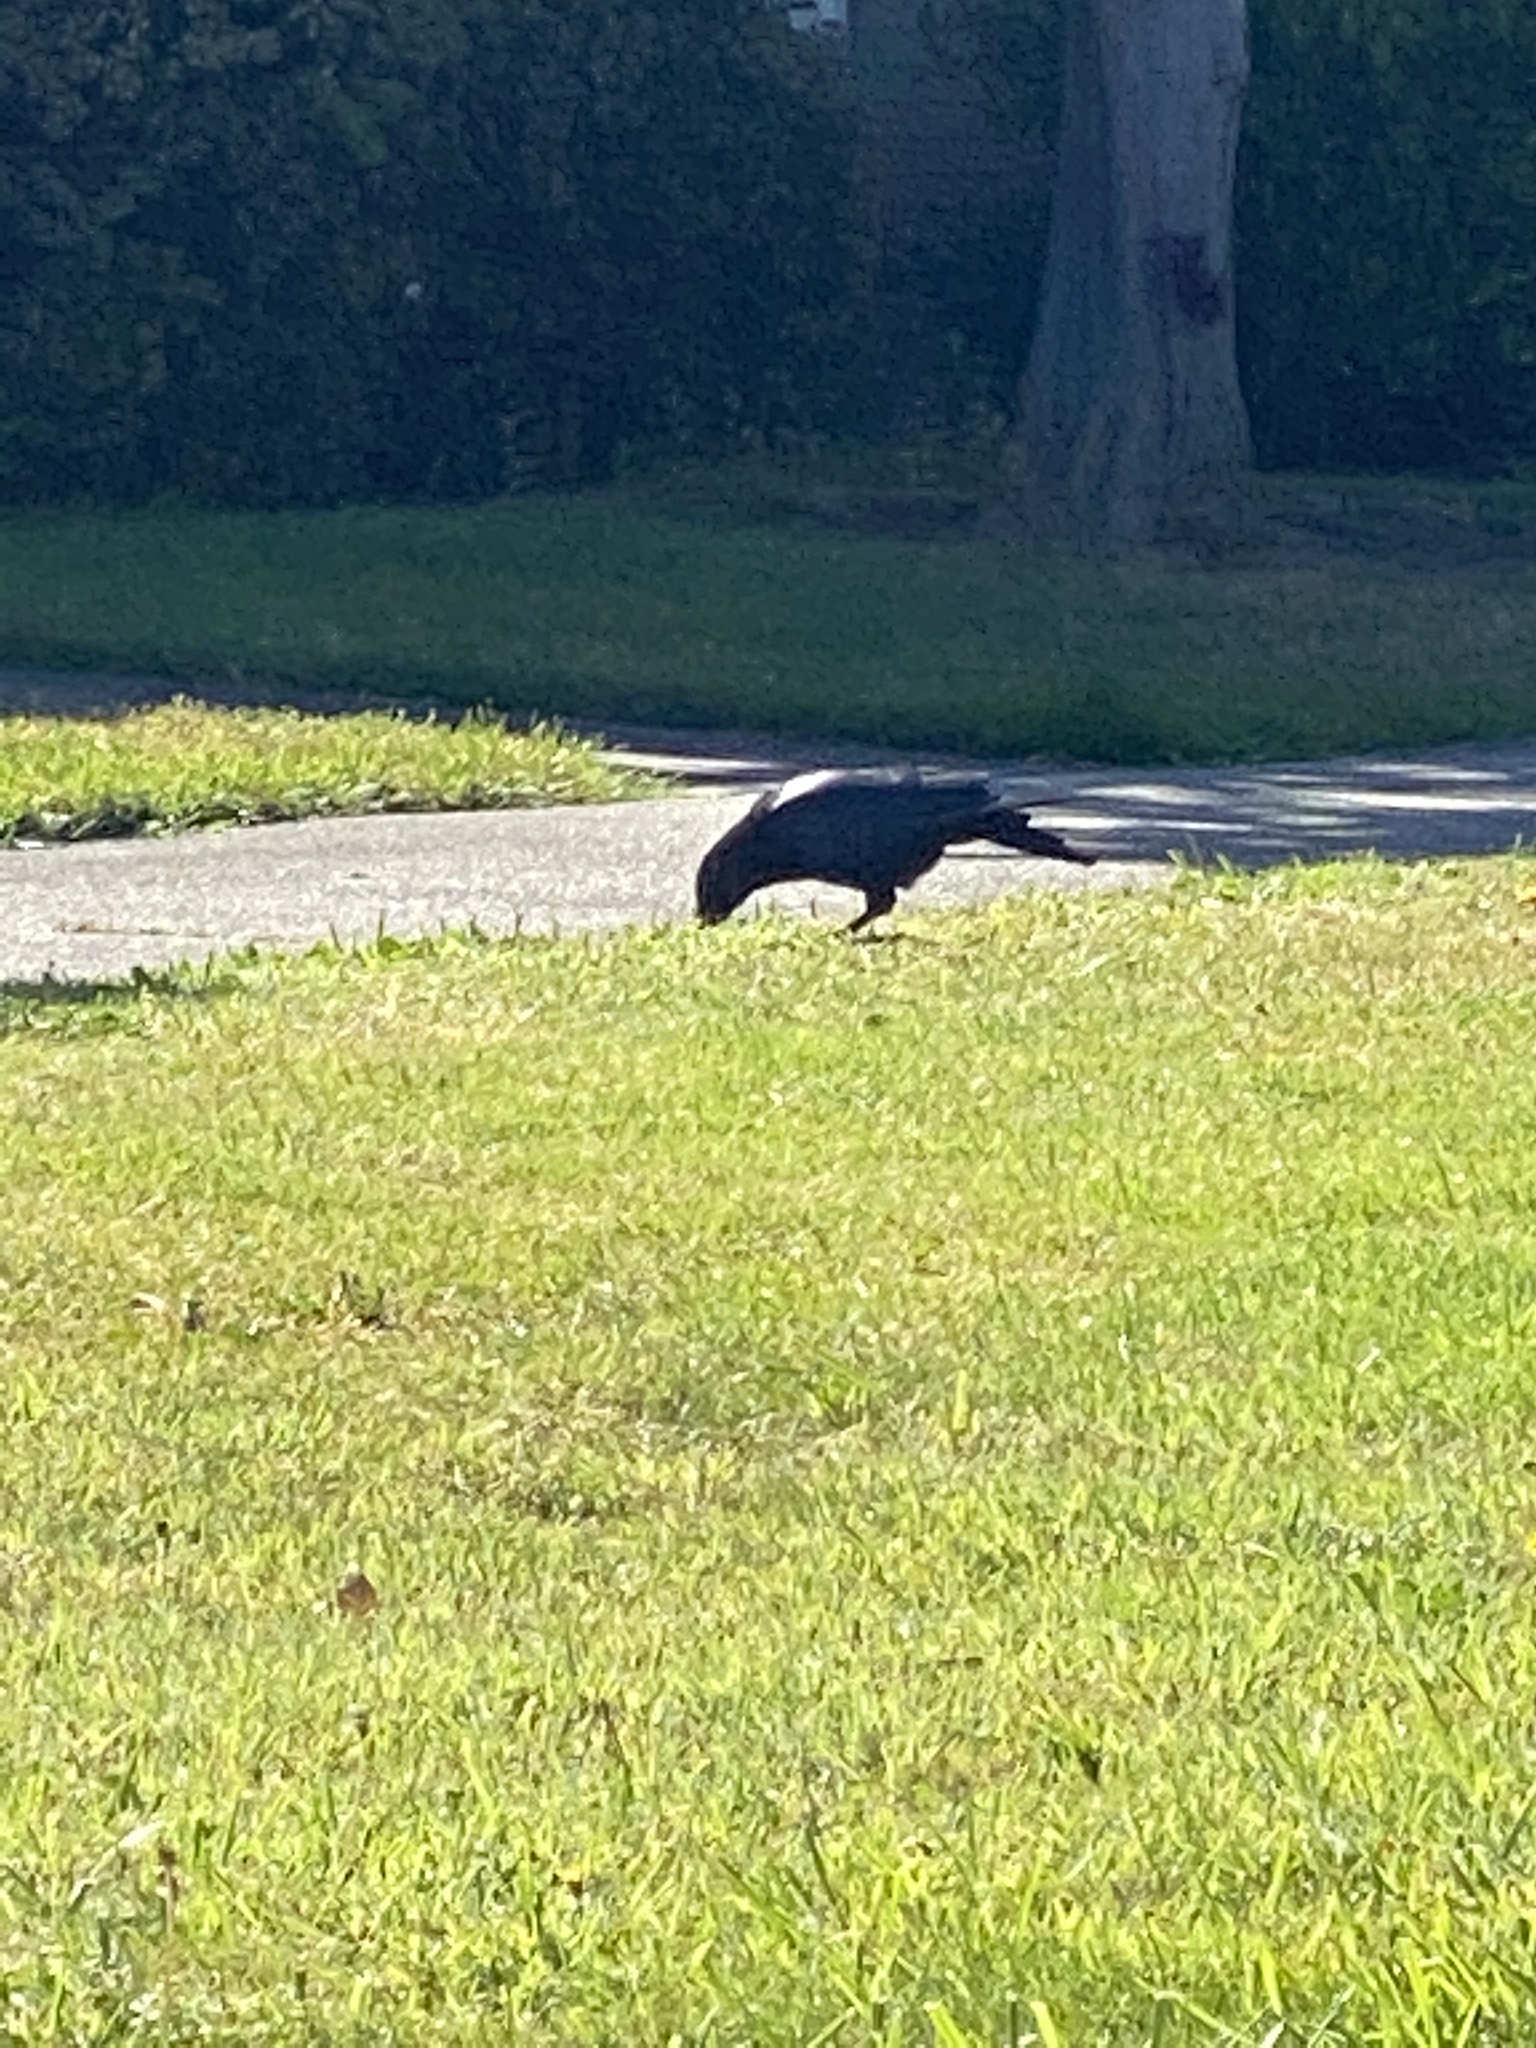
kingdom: Animalia
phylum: Chordata
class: Aves
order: Passeriformes
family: Corvidae
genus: Corvus
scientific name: Corvus brachyrhynchos
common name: American crow
